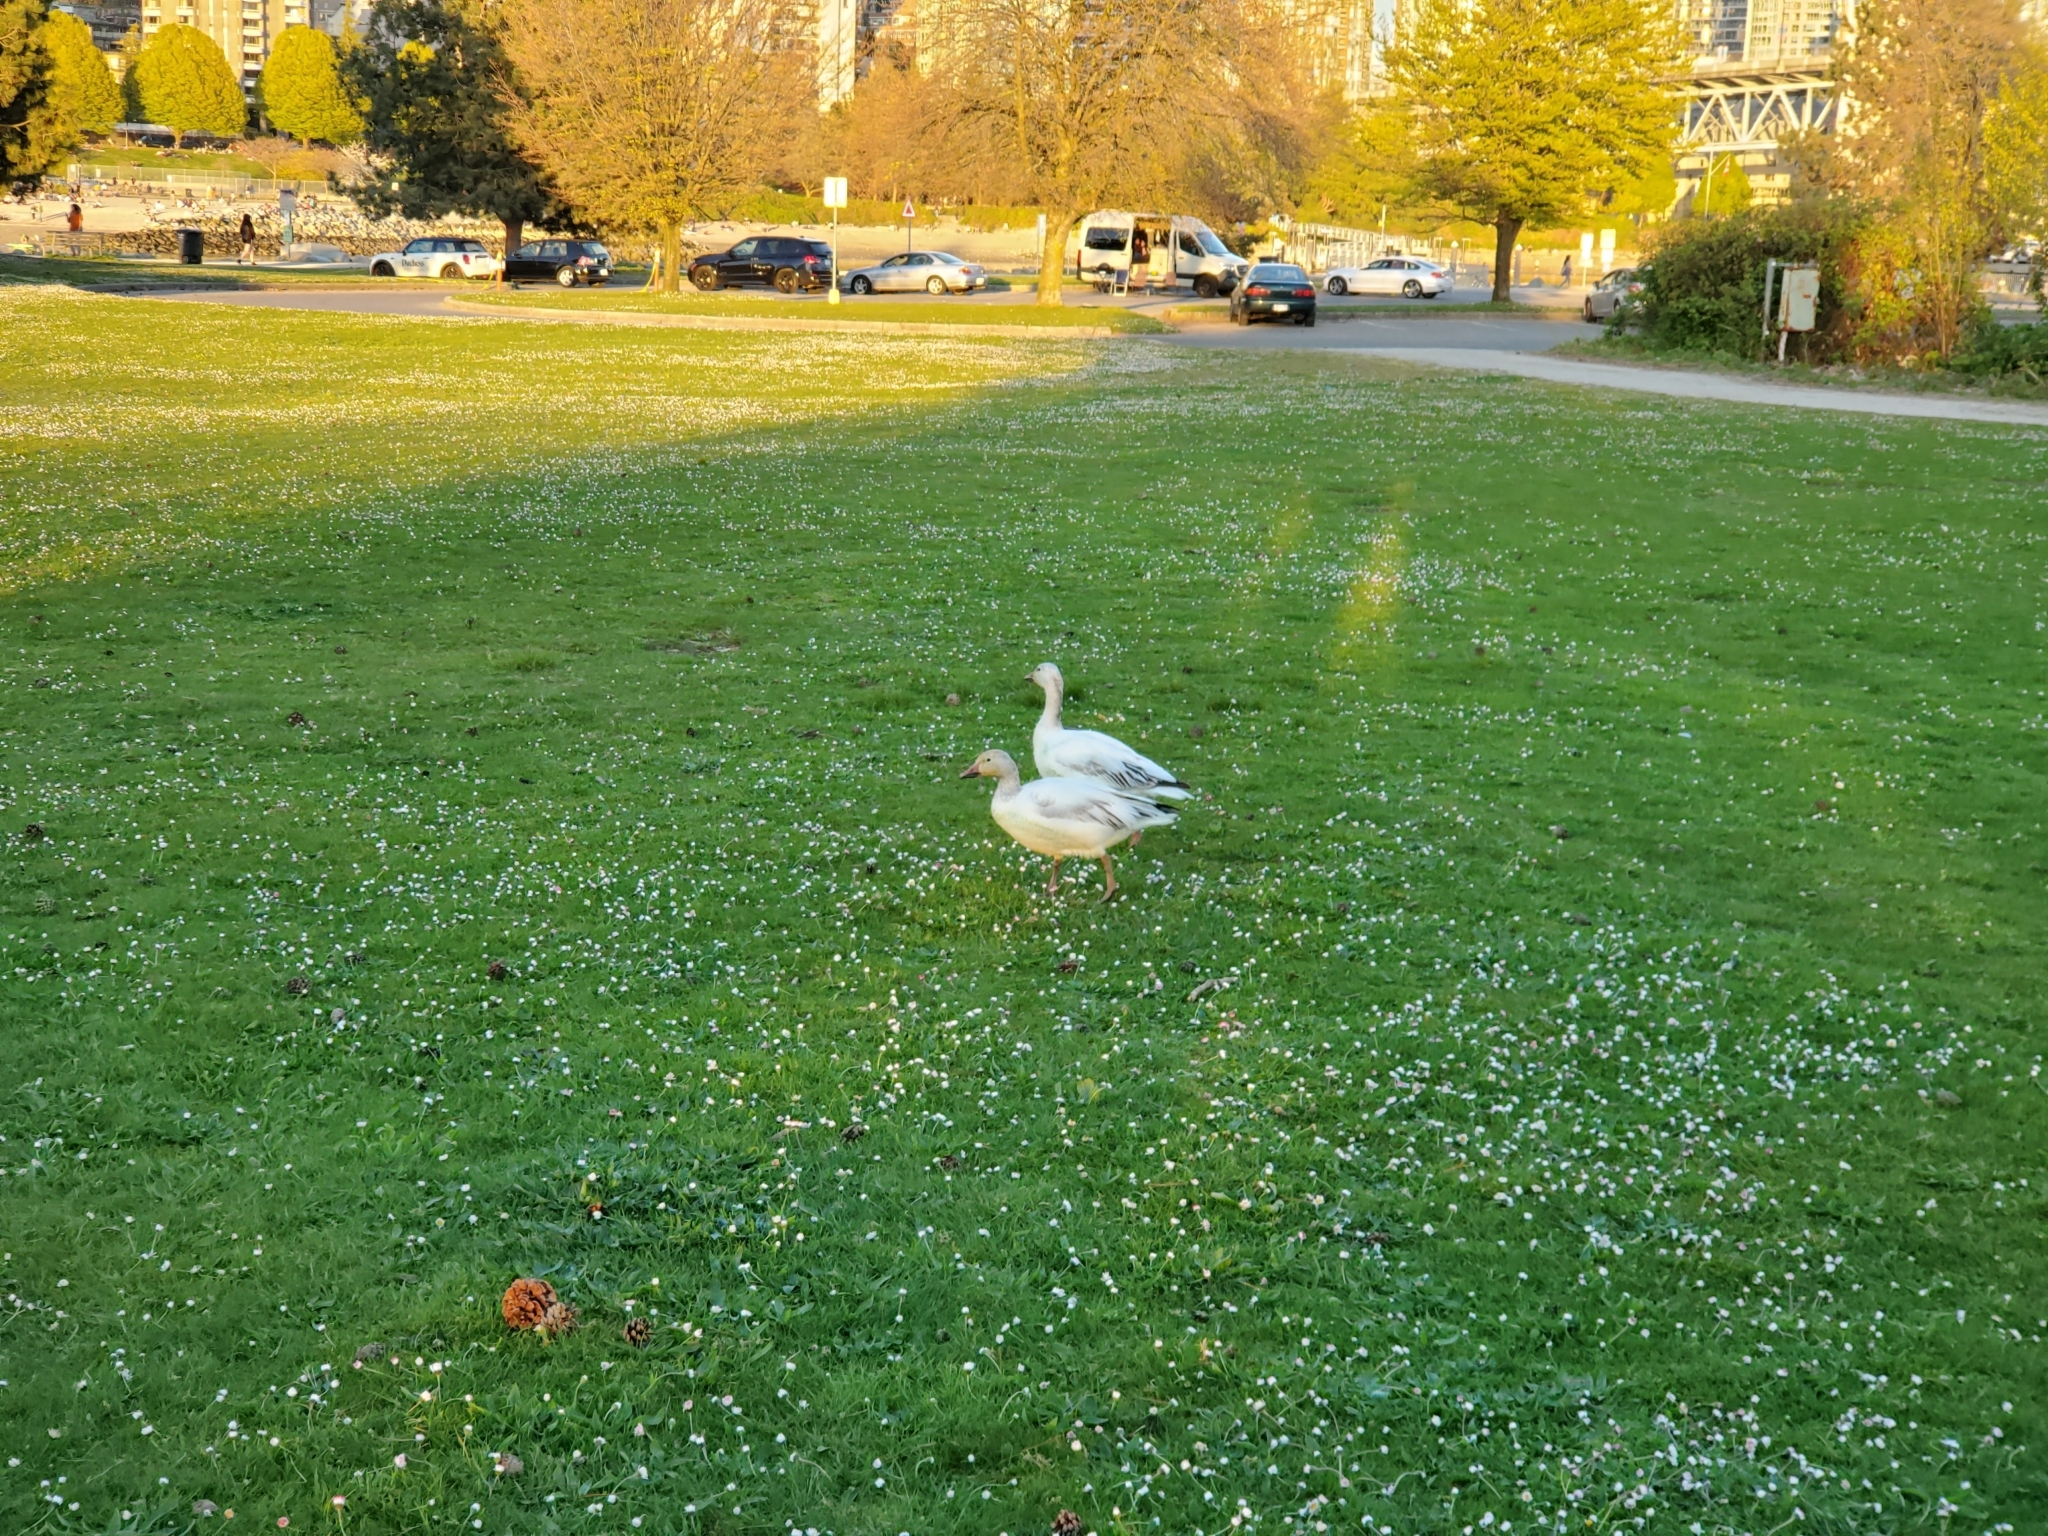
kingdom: Animalia
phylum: Chordata
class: Aves
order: Anseriformes
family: Anatidae
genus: Anser
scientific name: Anser caerulescens
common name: Snow goose
